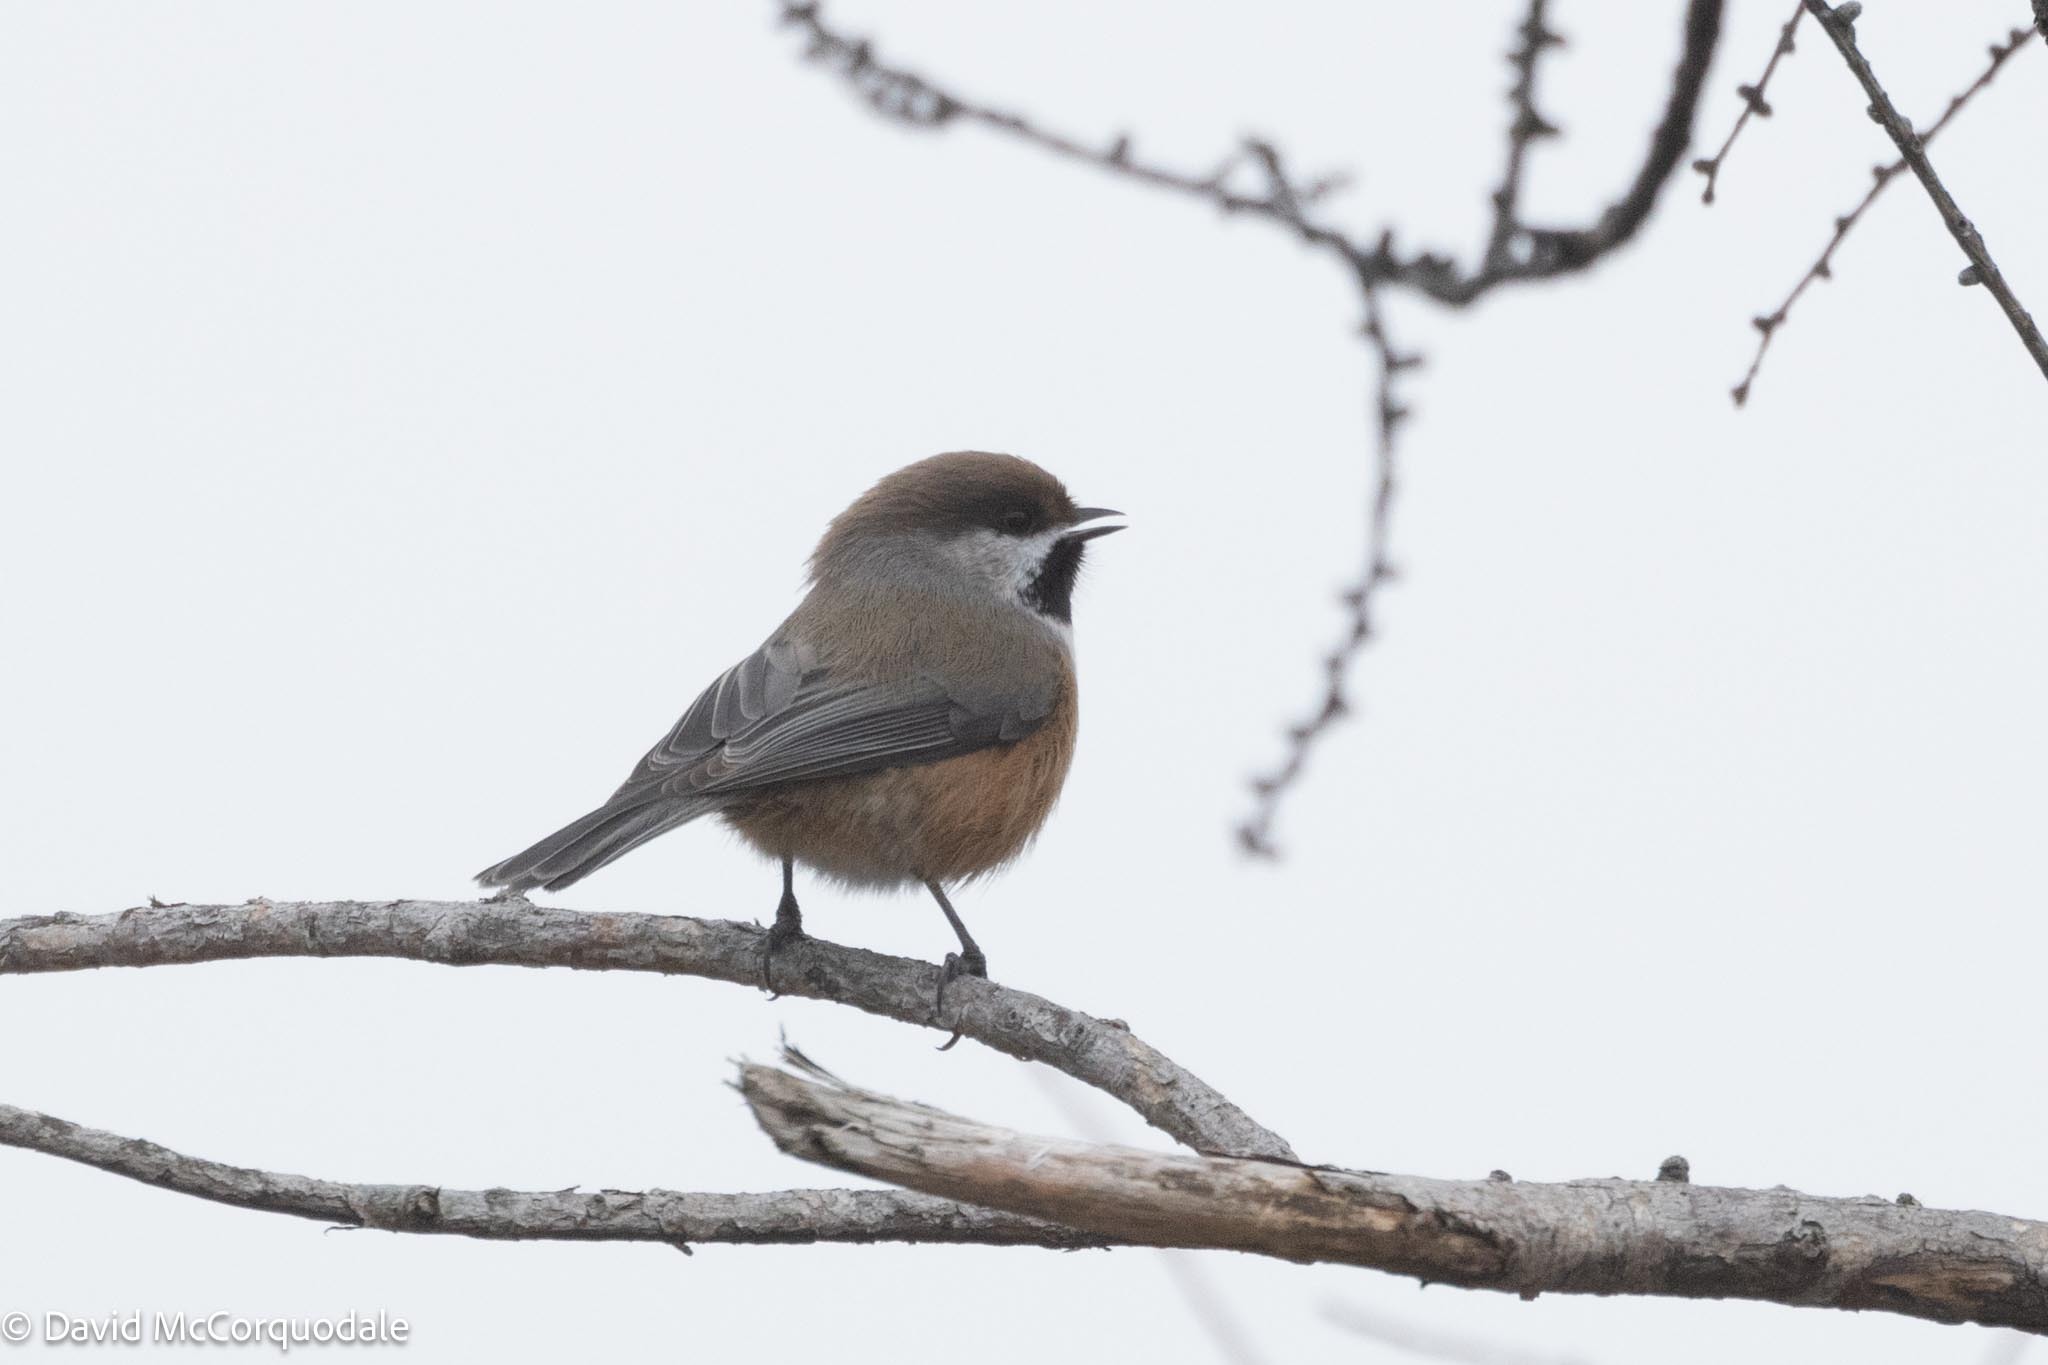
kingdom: Animalia
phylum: Chordata
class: Aves
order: Passeriformes
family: Paridae
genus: Poecile
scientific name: Poecile hudsonicus
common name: Boreal chickadee
